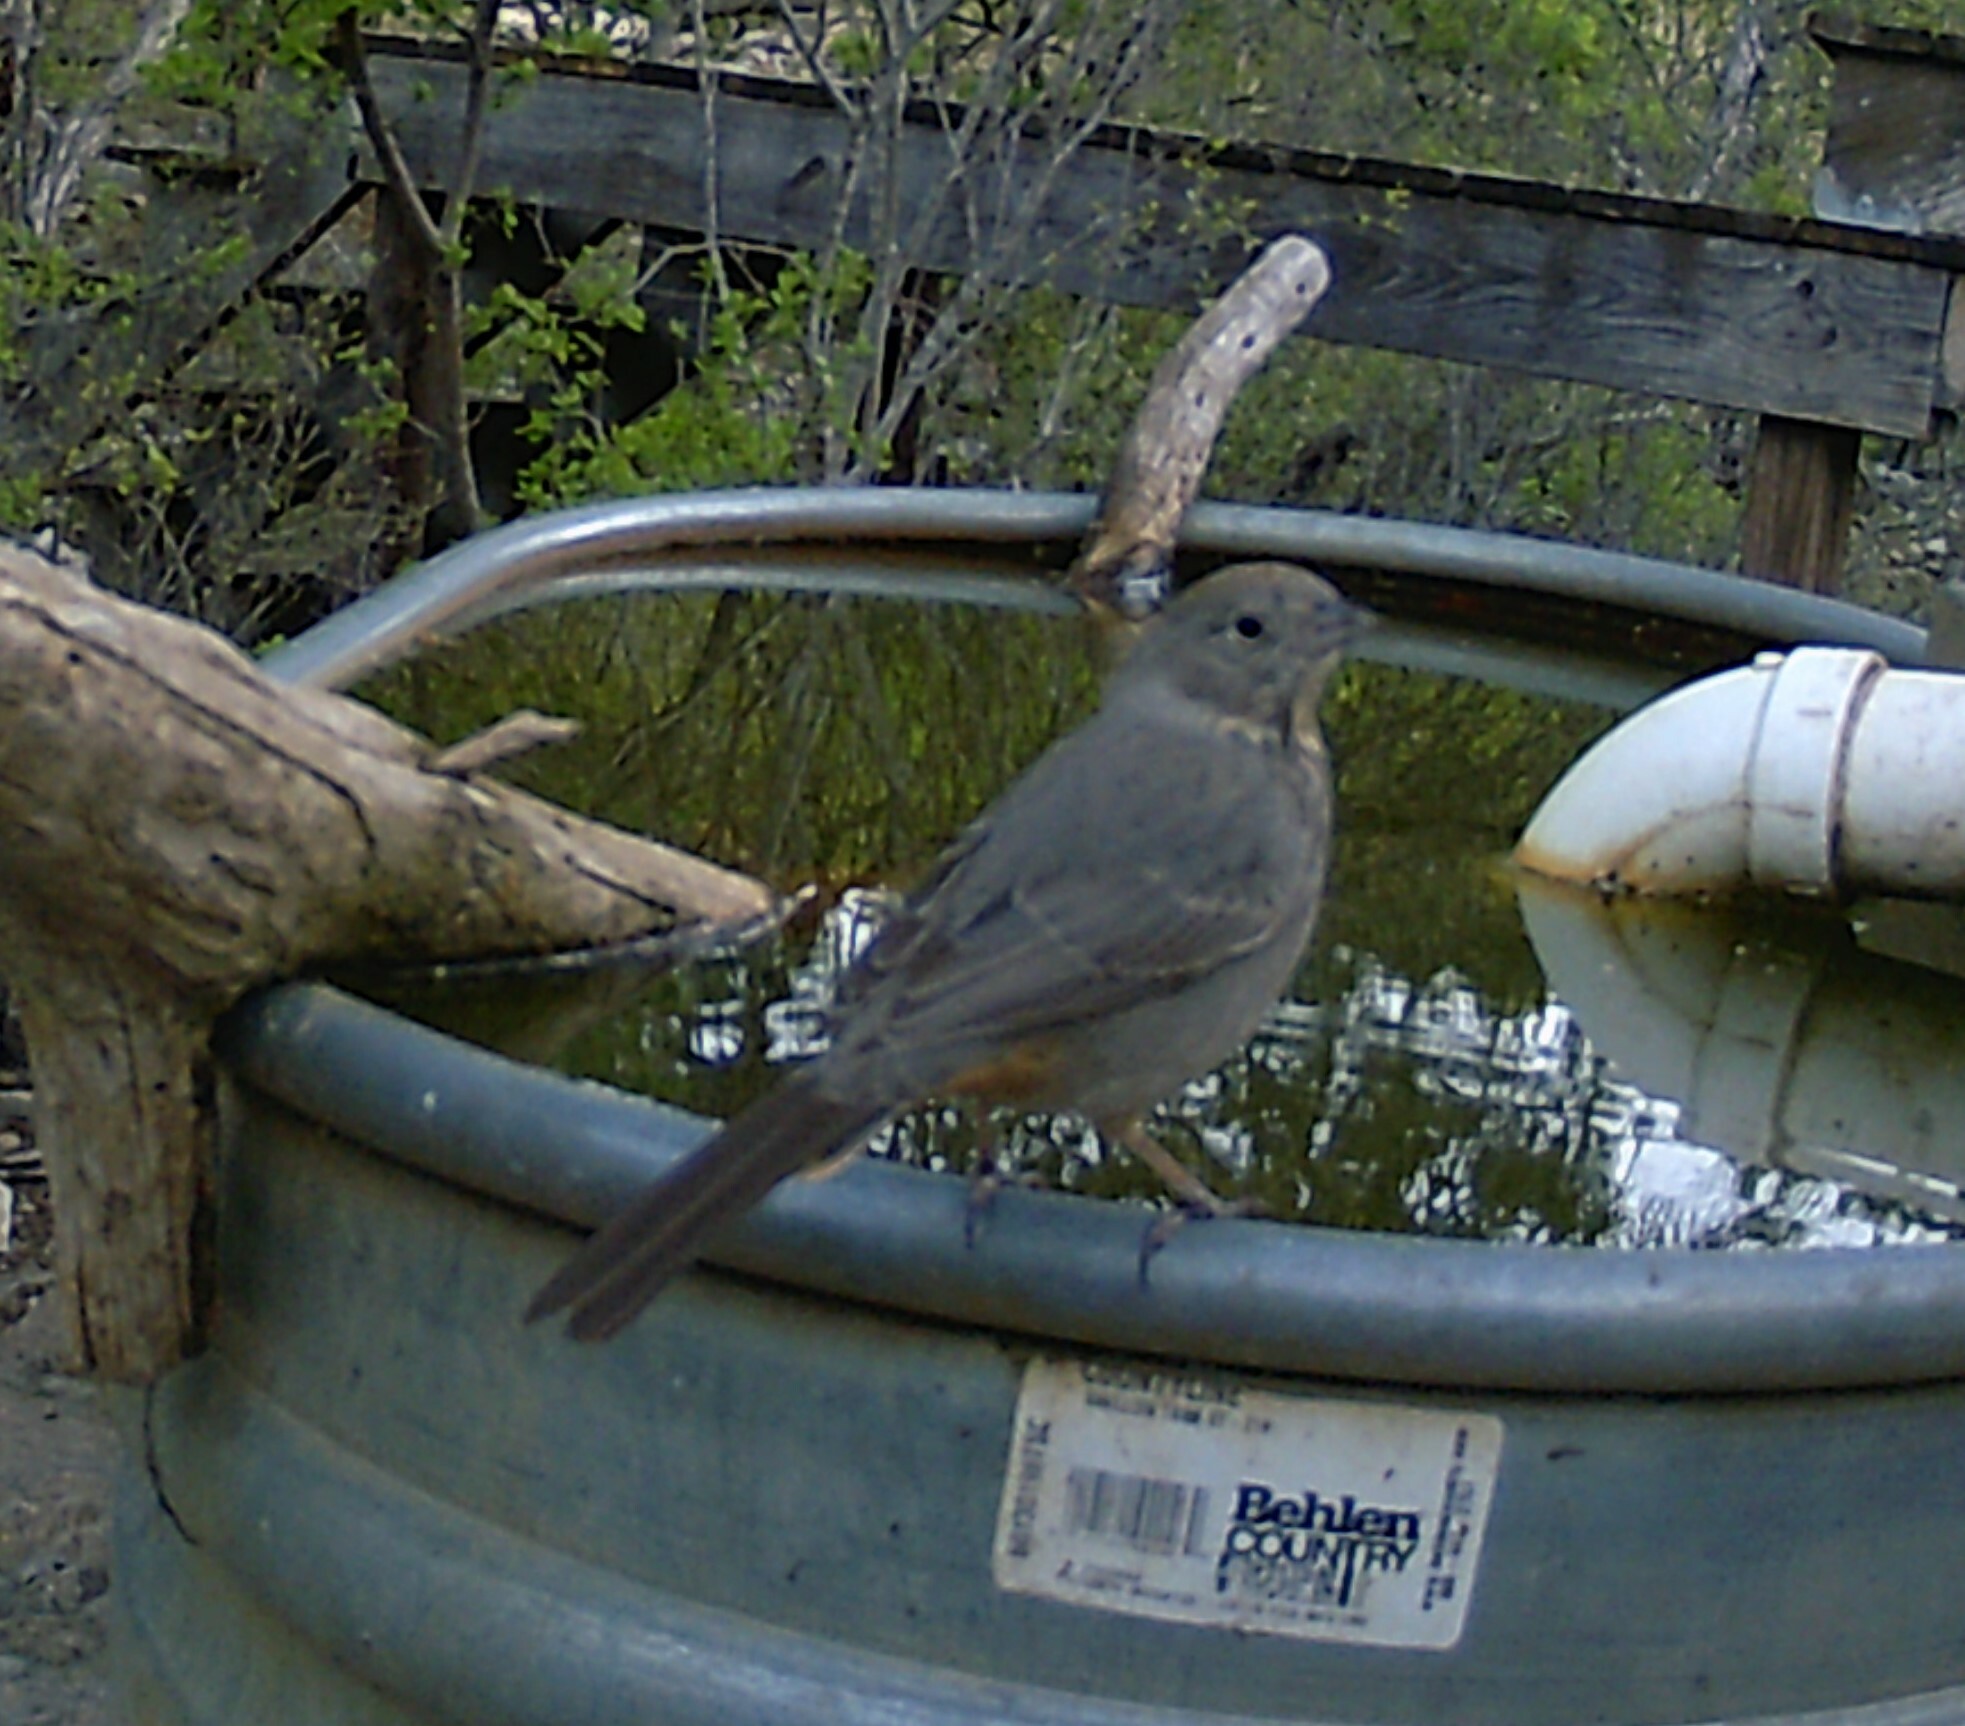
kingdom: Animalia
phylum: Chordata
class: Aves
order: Passeriformes
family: Passerellidae
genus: Melozone
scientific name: Melozone fusca
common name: Canyon towhee
